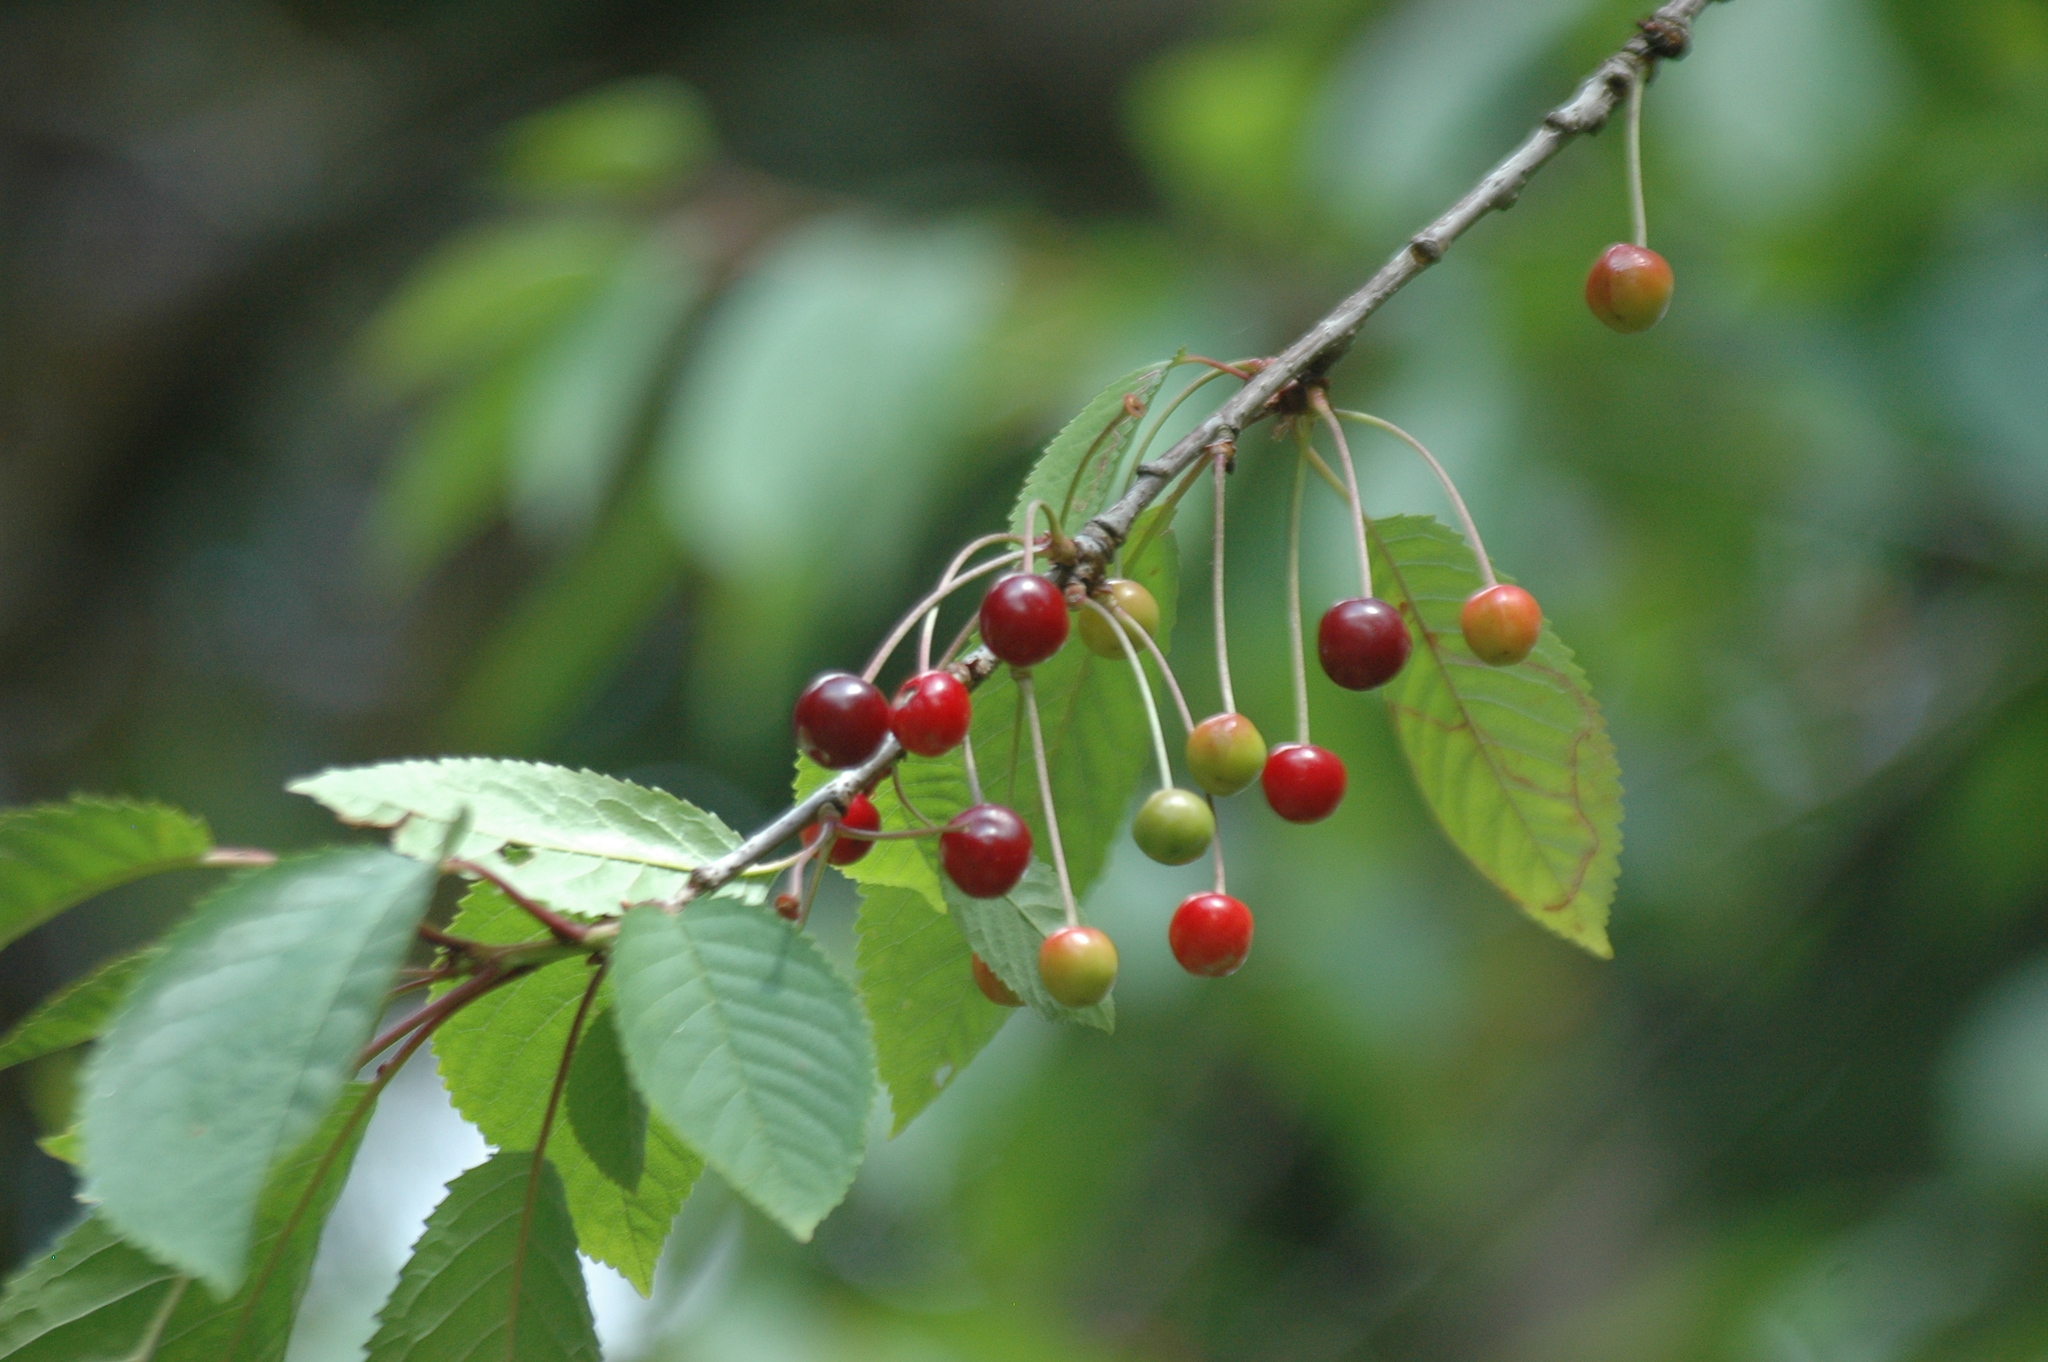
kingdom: Plantae
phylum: Tracheophyta
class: Magnoliopsida
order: Rosales
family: Rosaceae
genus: Prunus
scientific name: Prunus avium
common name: Sweet cherry
